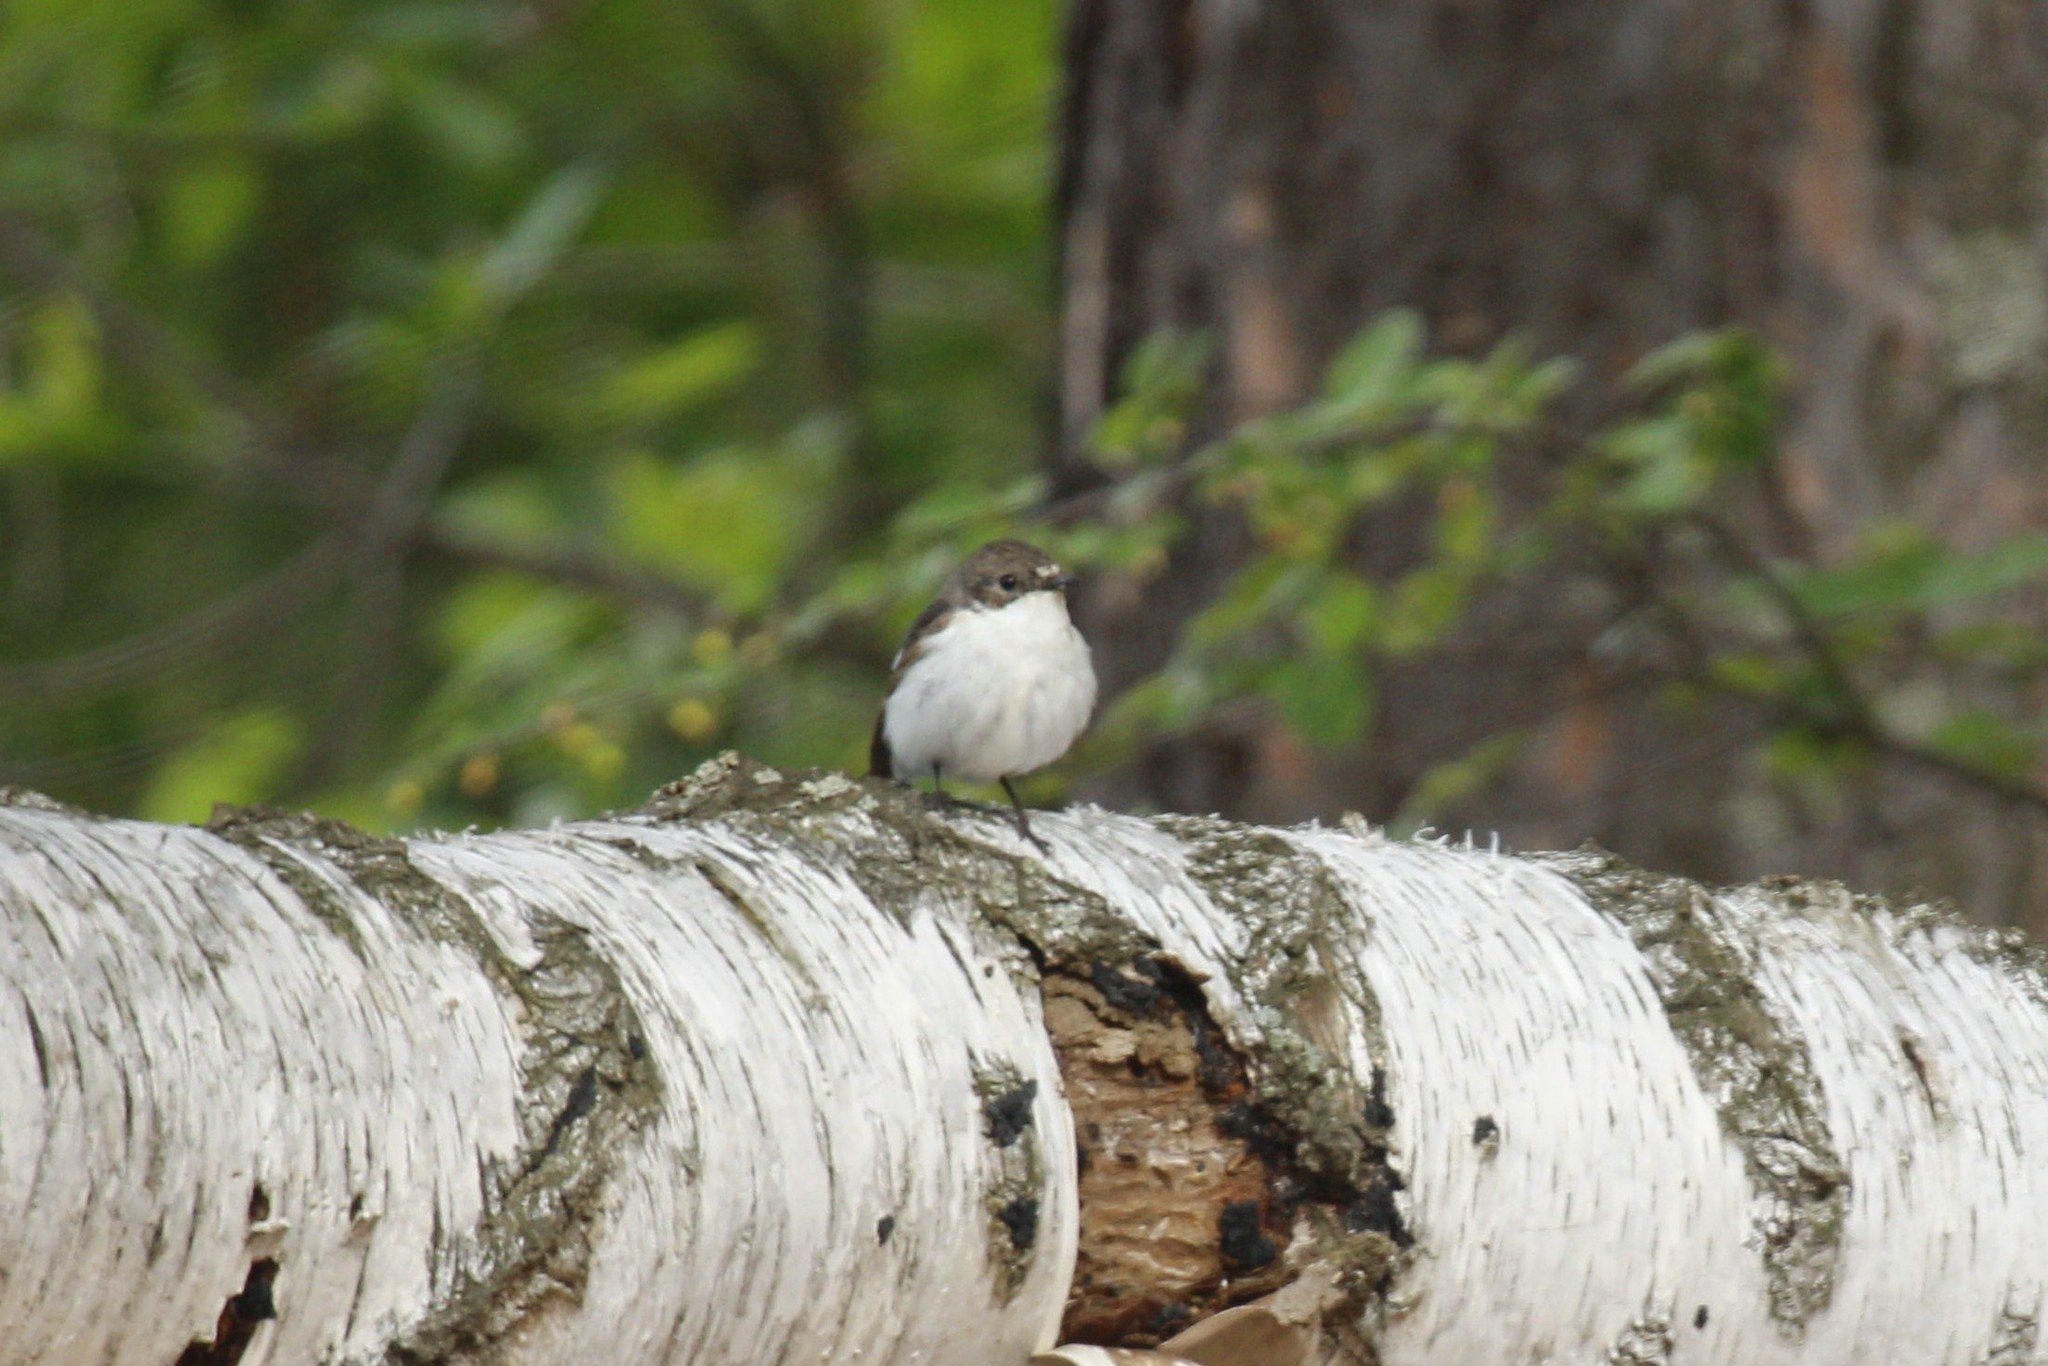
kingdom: Animalia
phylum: Chordata
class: Aves
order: Passeriformes
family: Muscicapidae
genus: Ficedula
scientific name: Ficedula hypoleuca
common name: European pied flycatcher
